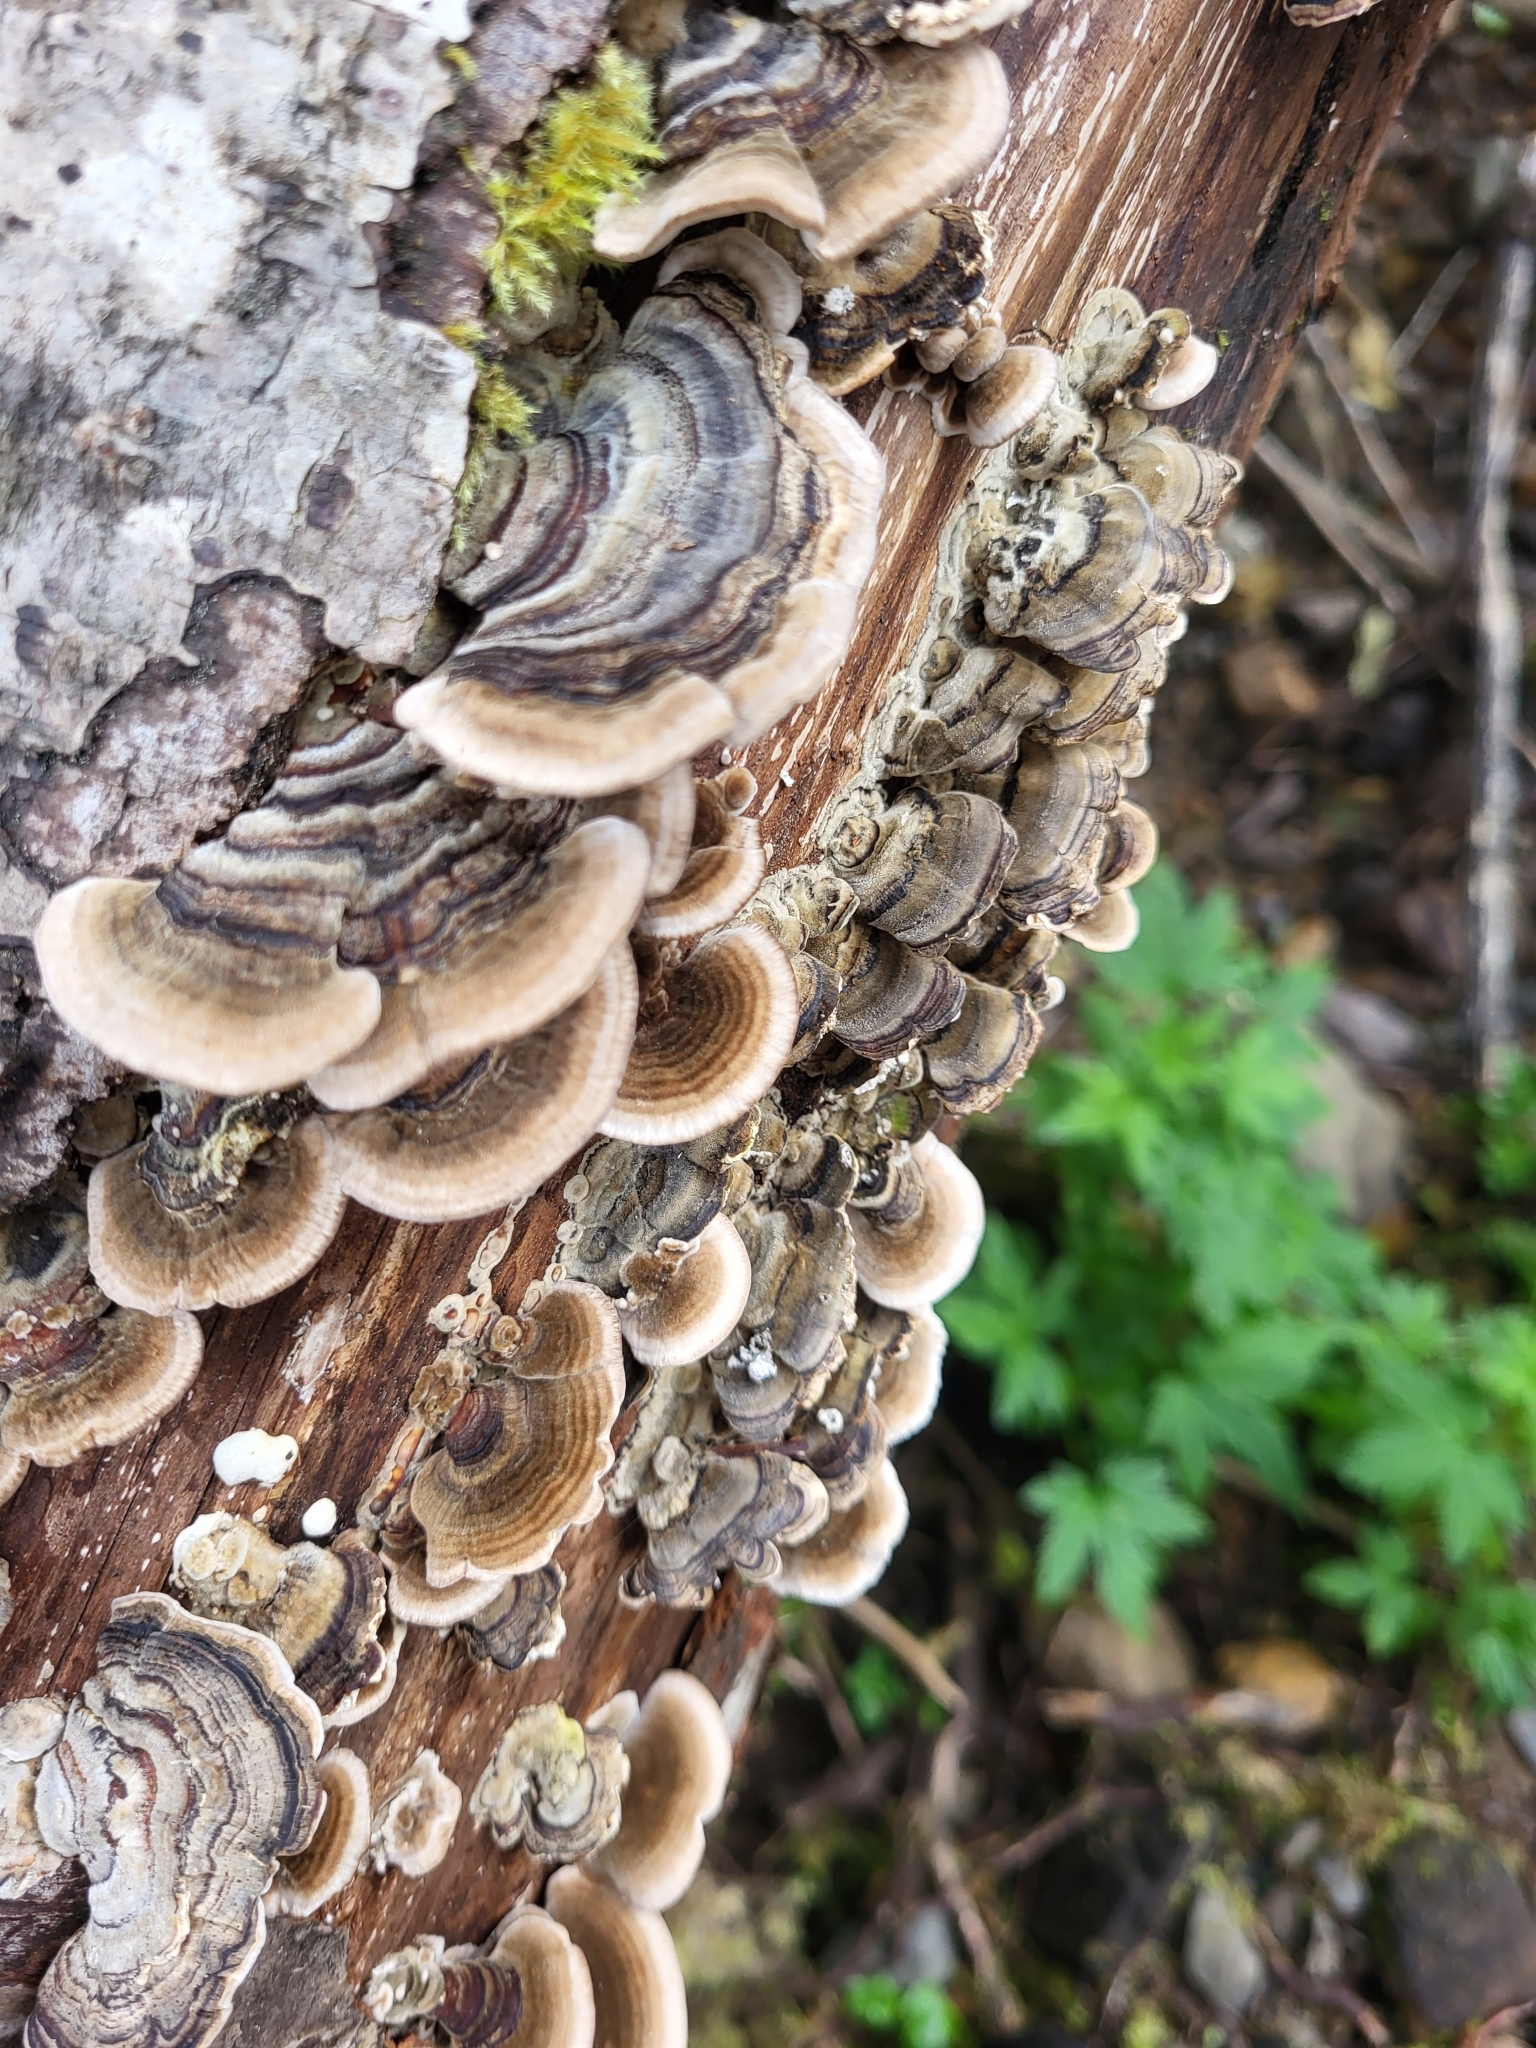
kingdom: Fungi
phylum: Basidiomycota
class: Agaricomycetes
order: Polyporales
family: Polyporaceae
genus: Trametes
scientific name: Trametes versicolor
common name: Turkeytail
